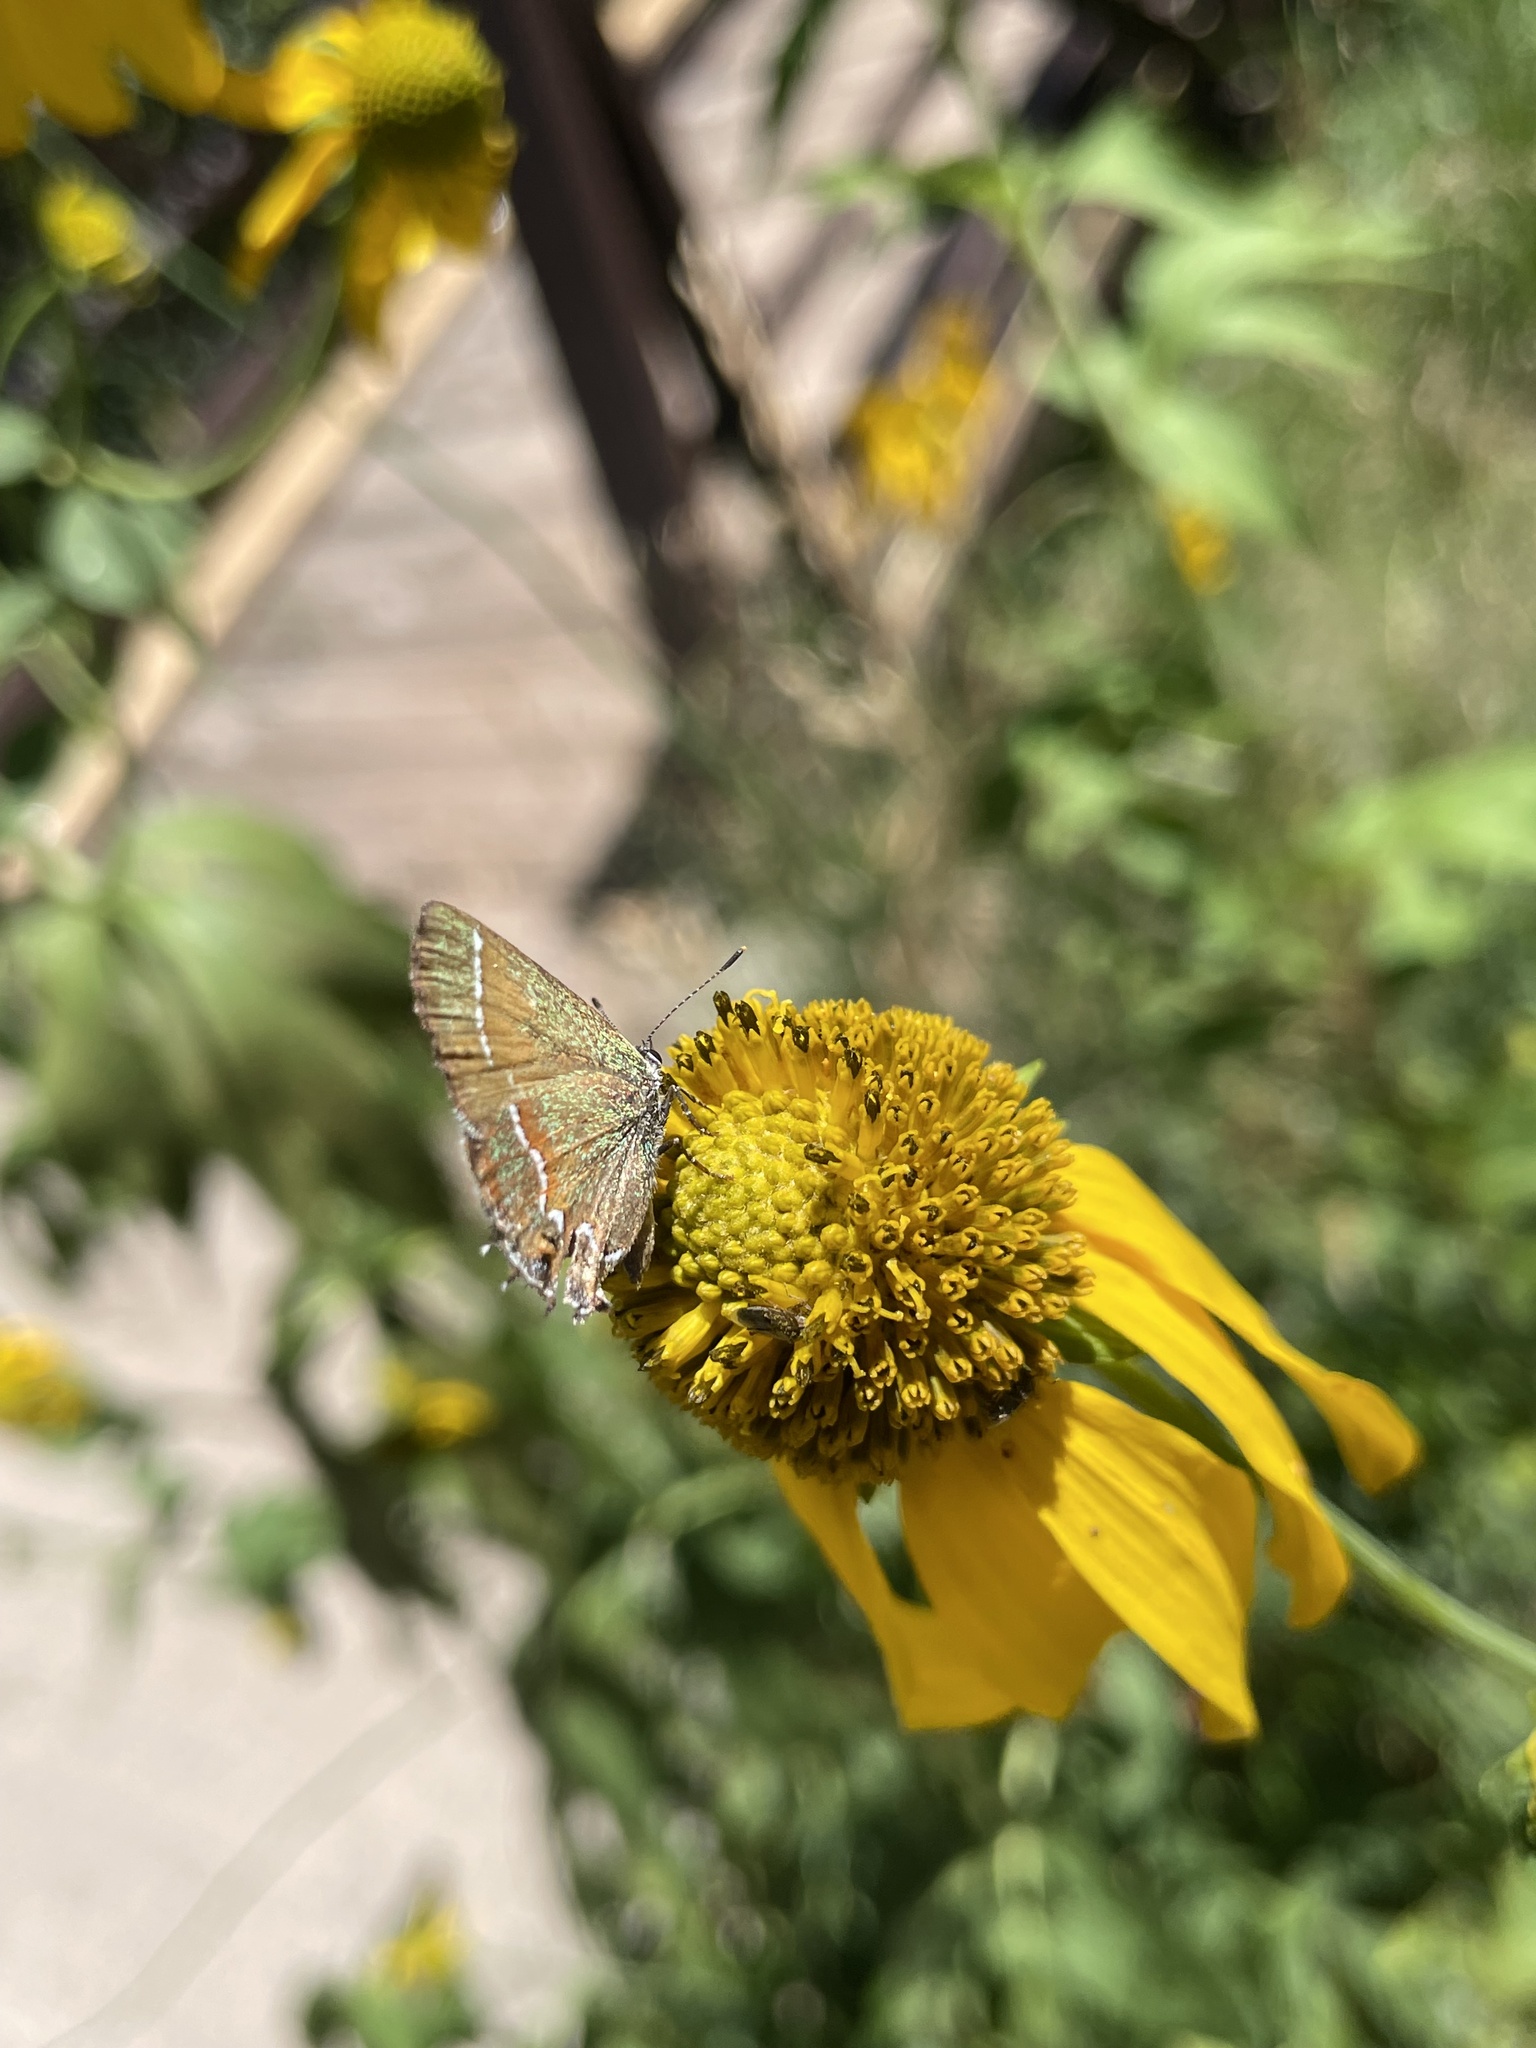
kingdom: Animalia
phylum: Arthropoda
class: Insecta
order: Lepidoptera
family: Lycaenidae
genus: Mitoura
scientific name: Mitoura gryneus
